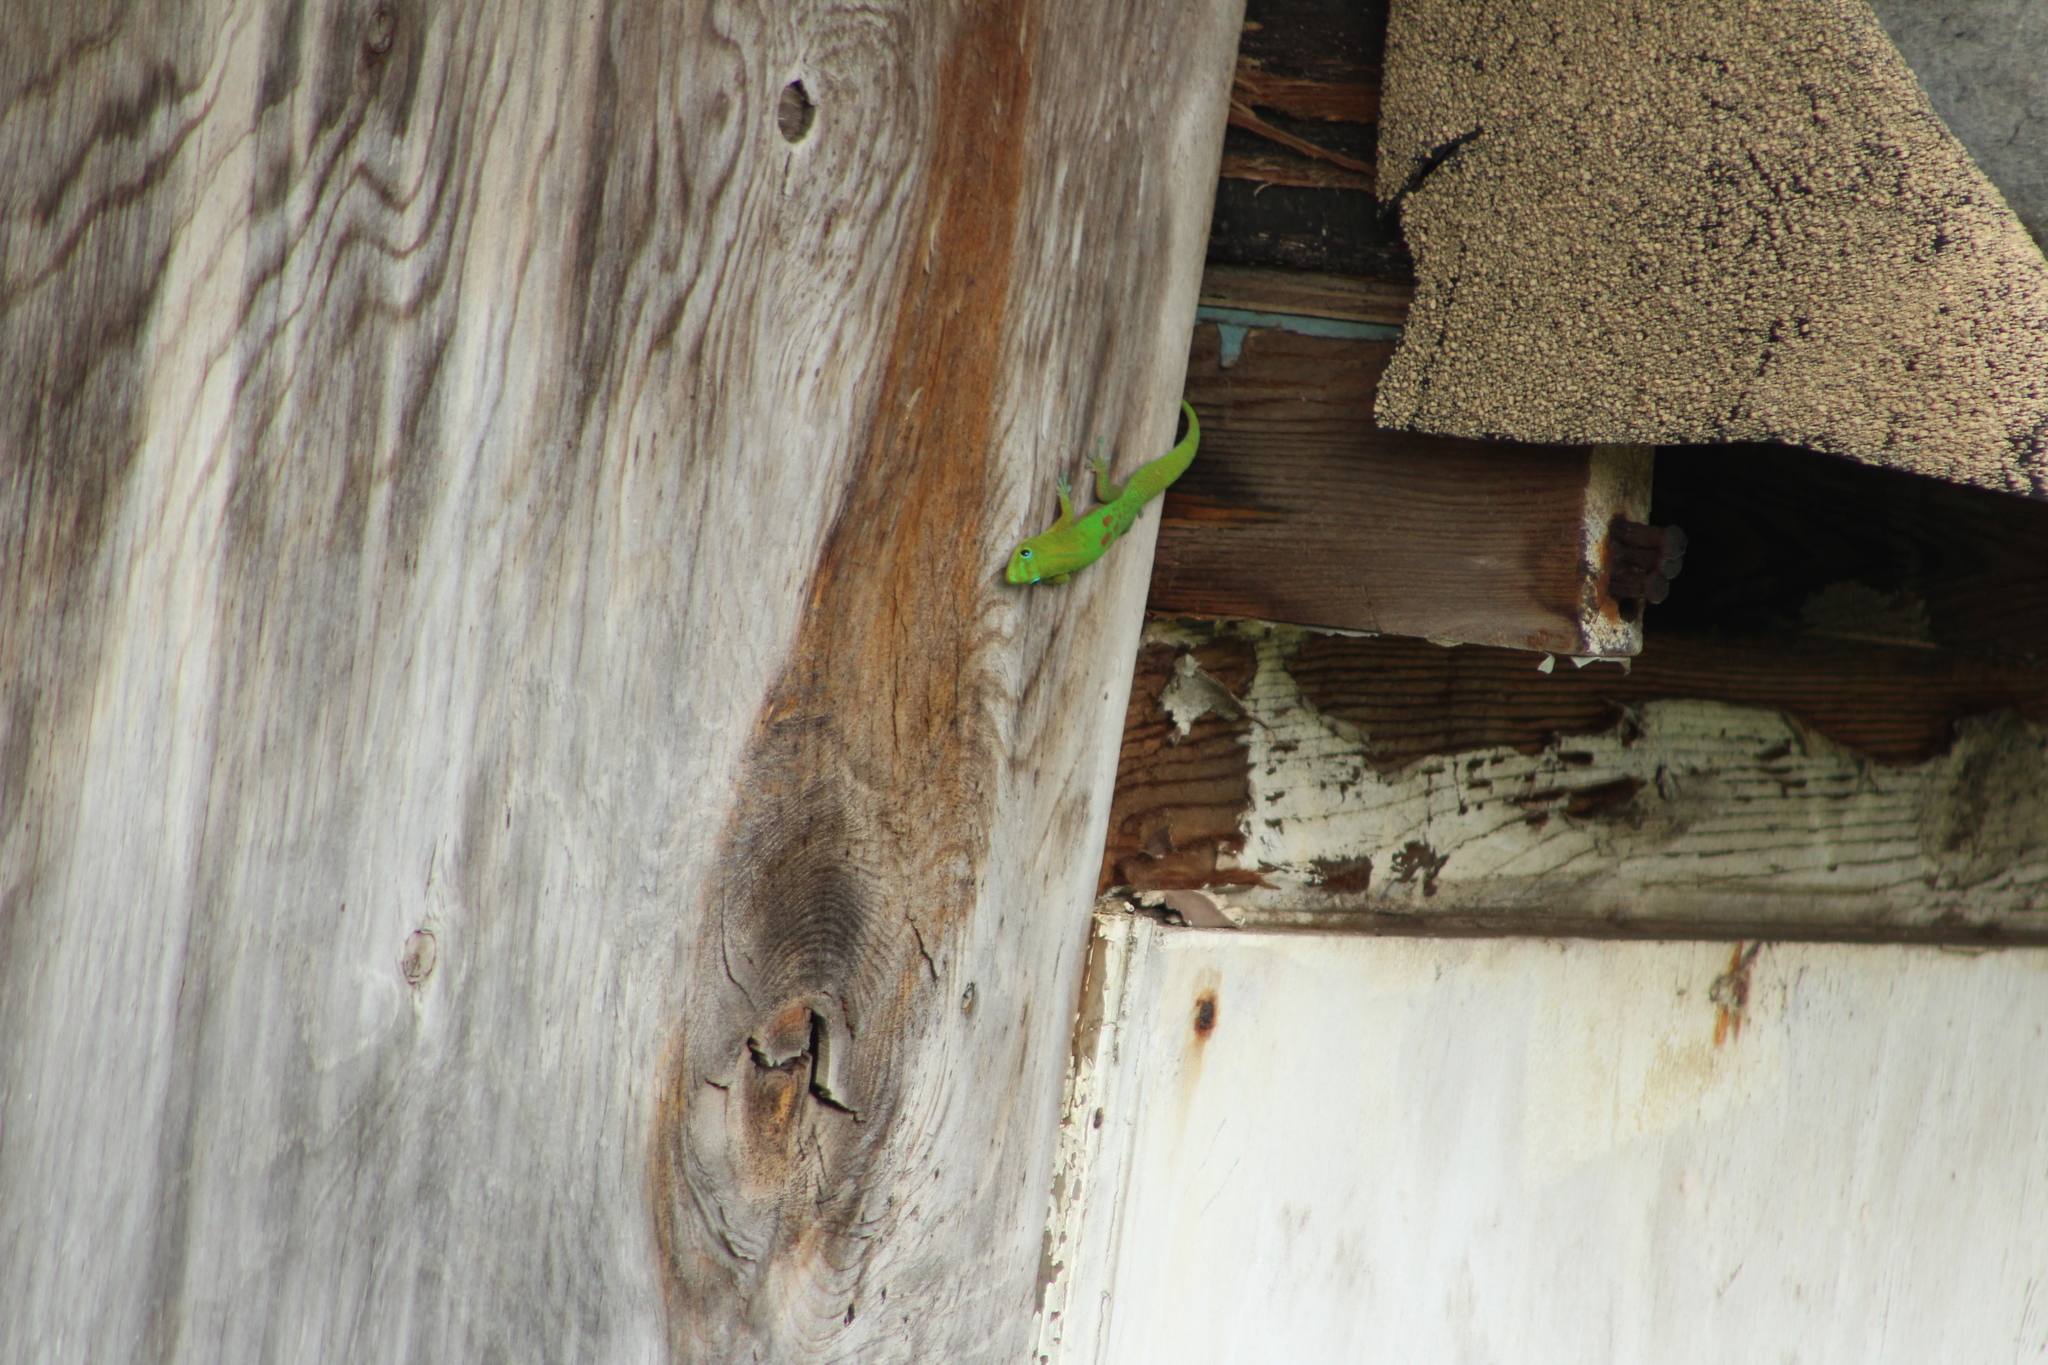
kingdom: Animalia
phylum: Chordata
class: Squamata
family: Gekkonidae
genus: Phelsuma
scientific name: Phelsuma laticauda
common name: Gold dust day gecko
